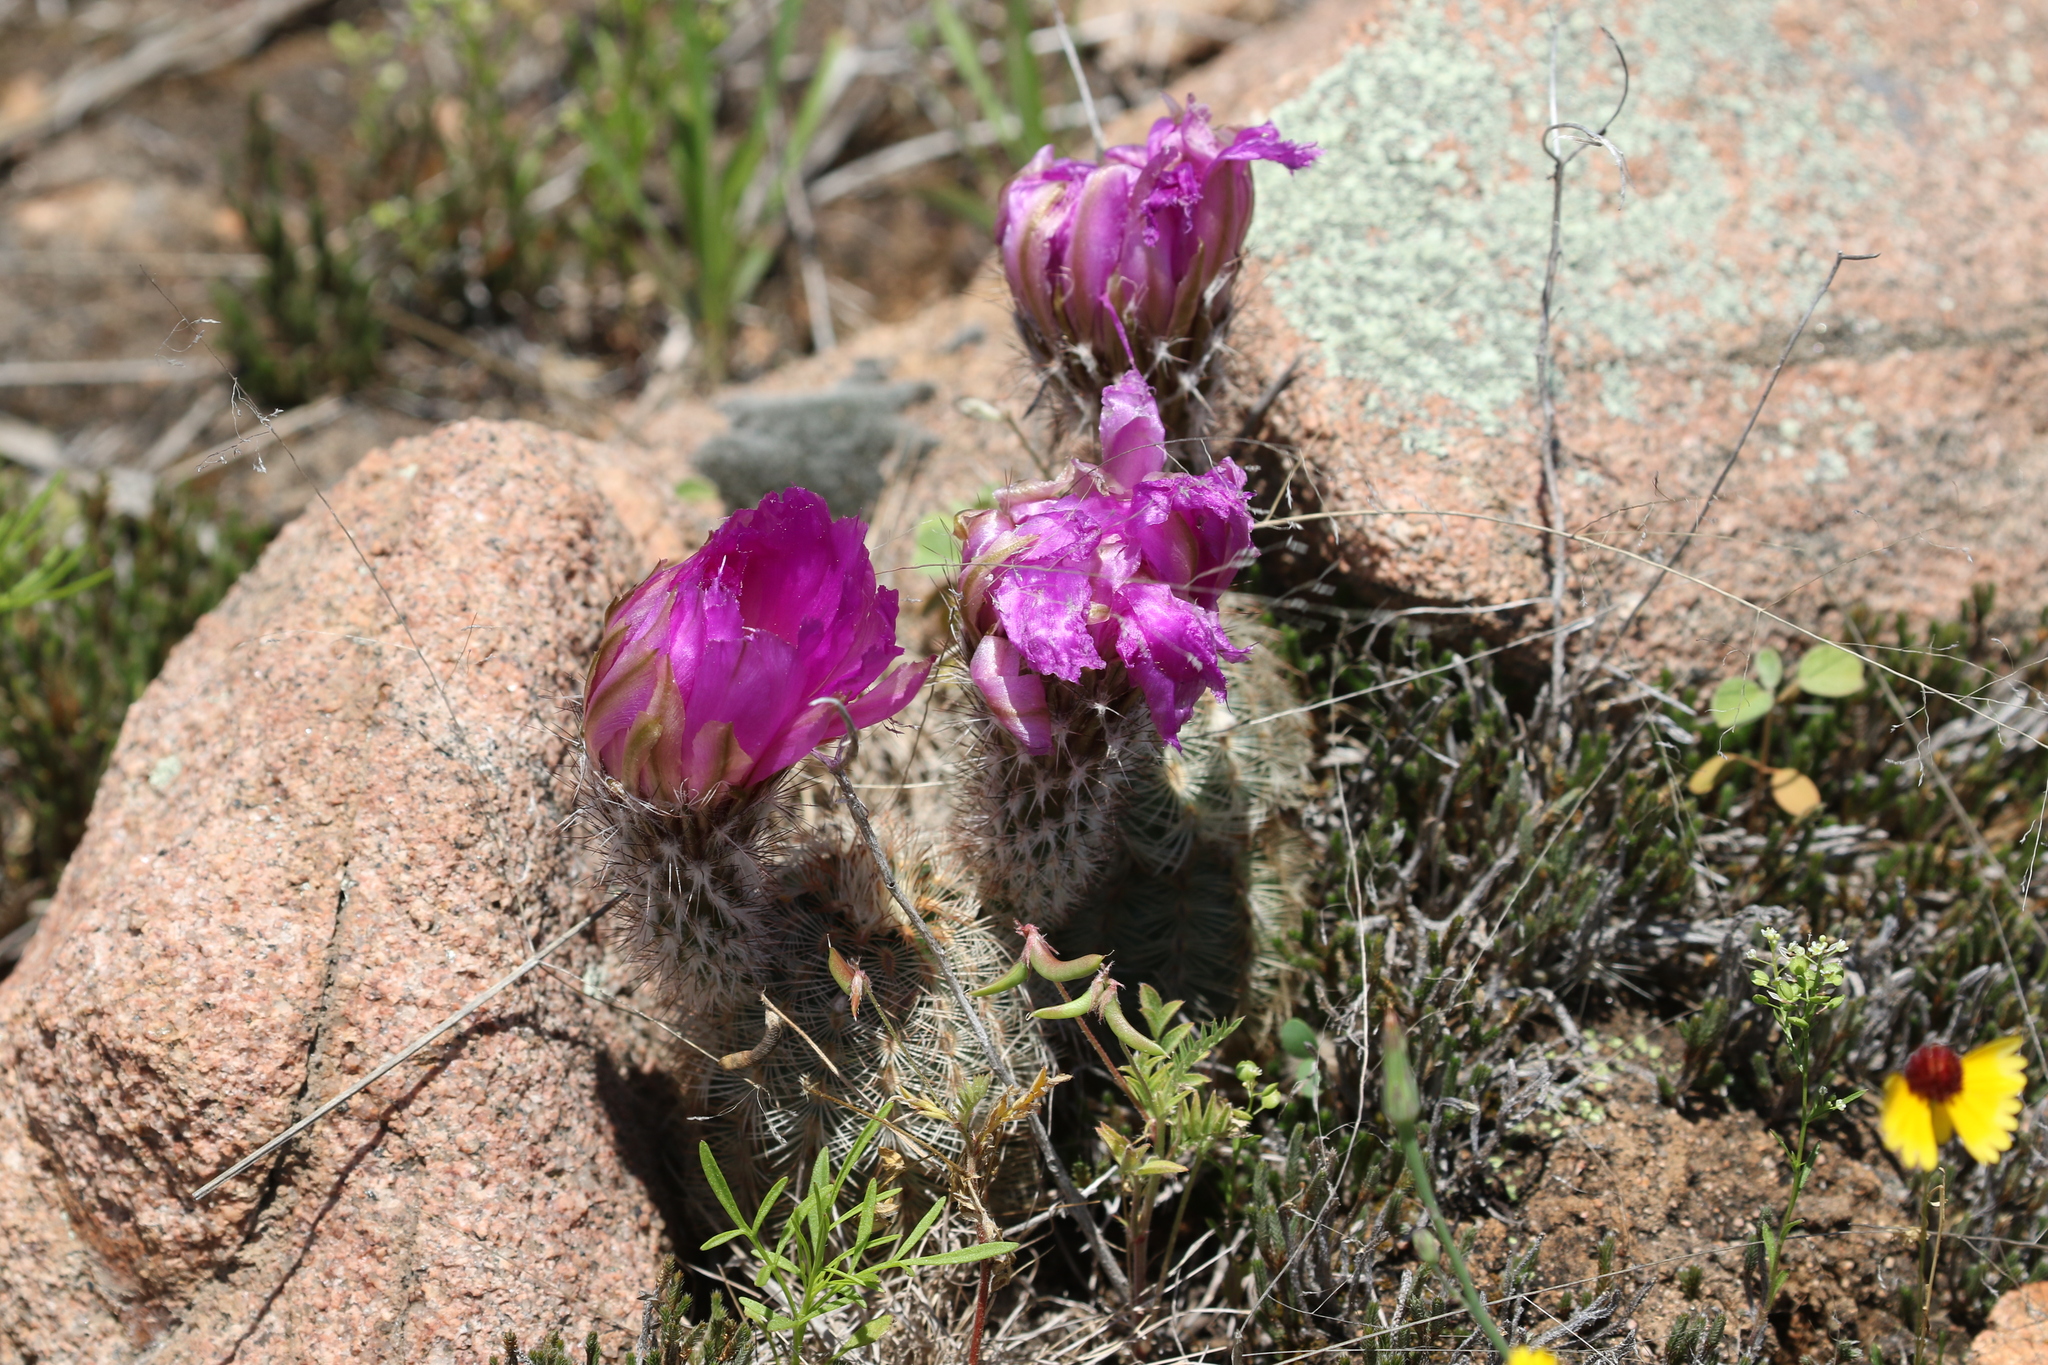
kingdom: Plantae
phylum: Tracheophyta
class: Magnoliopsida
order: Caryophyllales
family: Cactaceae
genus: Echinocereus
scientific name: Echinocereus reichenbachii
